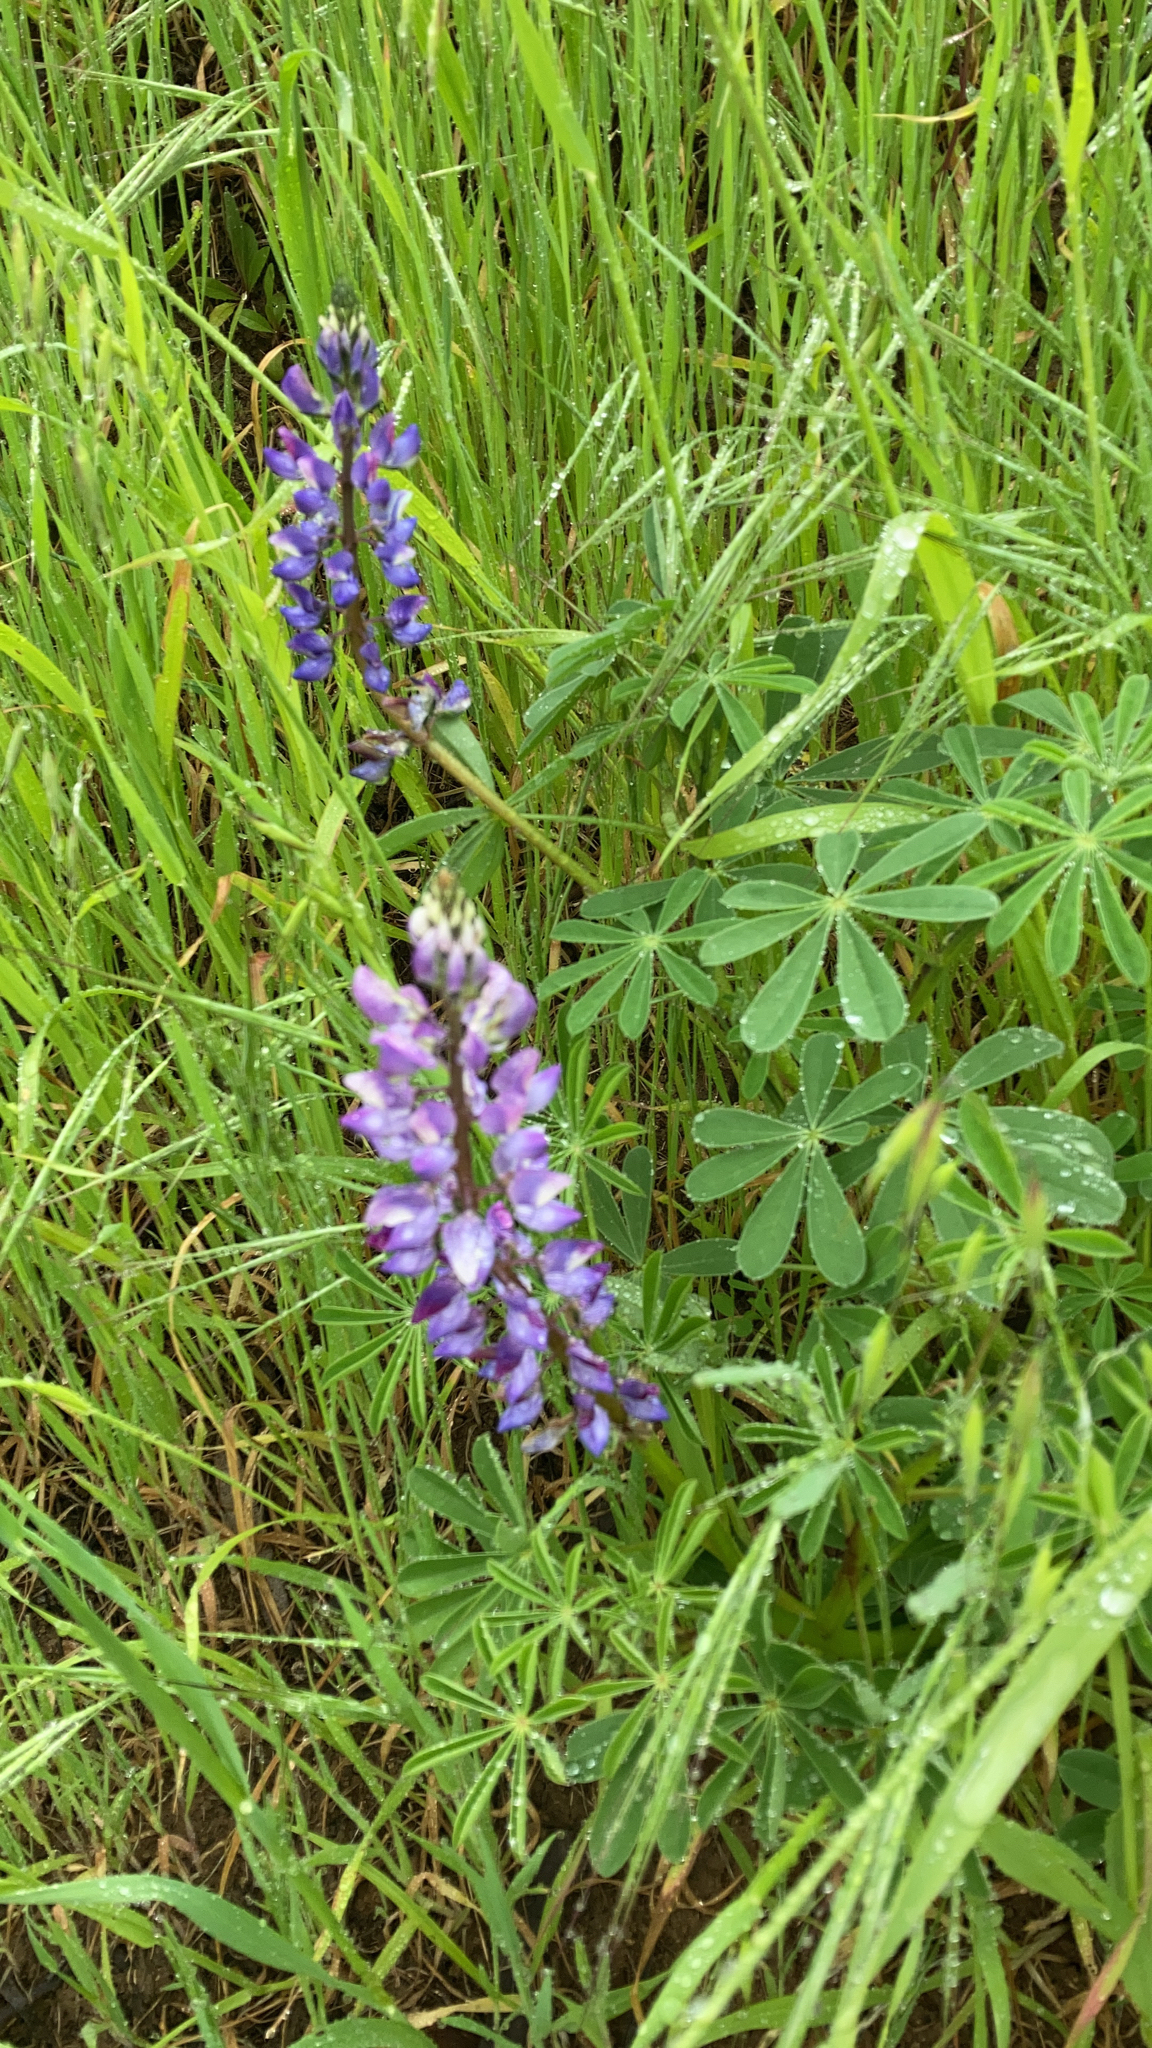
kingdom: Plantae
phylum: Tracheophyta
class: Magnoliopsida
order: Fabales
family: Fabaceae
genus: Lupinus
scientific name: Lupinus succulentus
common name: Arroyo lupine
